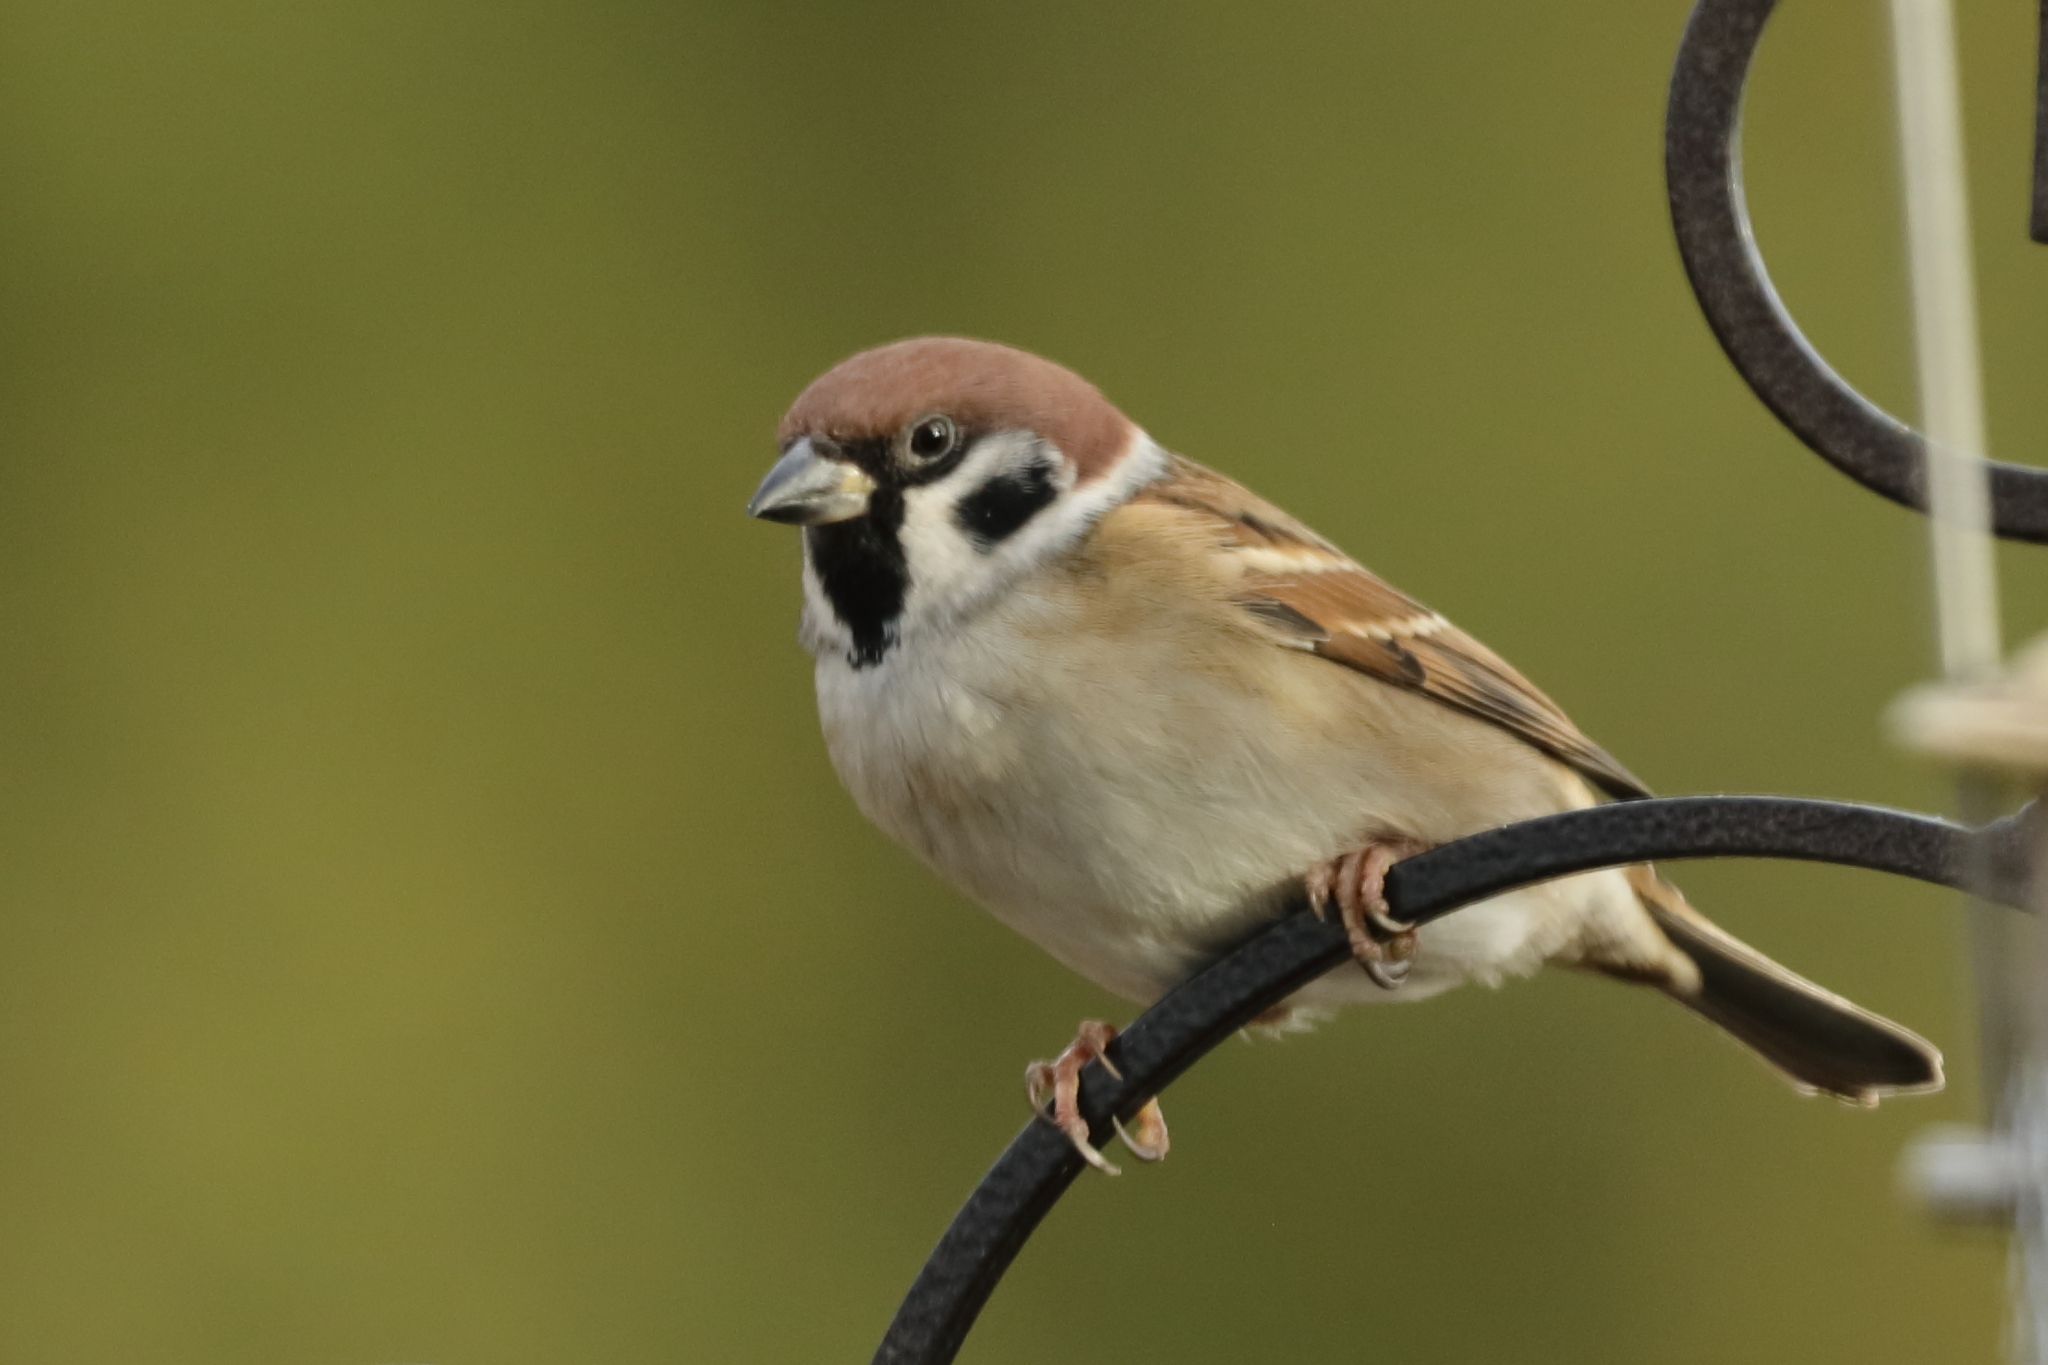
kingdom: Animalia
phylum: Chordata
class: Aves
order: Passeriformes
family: Passeridae
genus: Passer
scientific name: Passer montanus
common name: Eurasian tree sparrow
